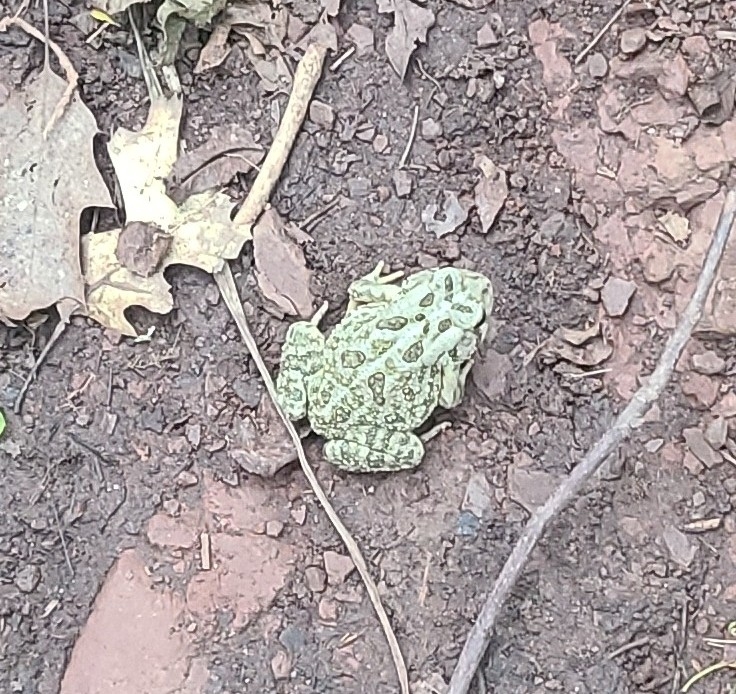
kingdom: Animalia
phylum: Chordata
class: Amphibia
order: Anura
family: Bufonidae
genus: Anaxyrus
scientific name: Anaxyrus fowleri
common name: Fowler's toad
